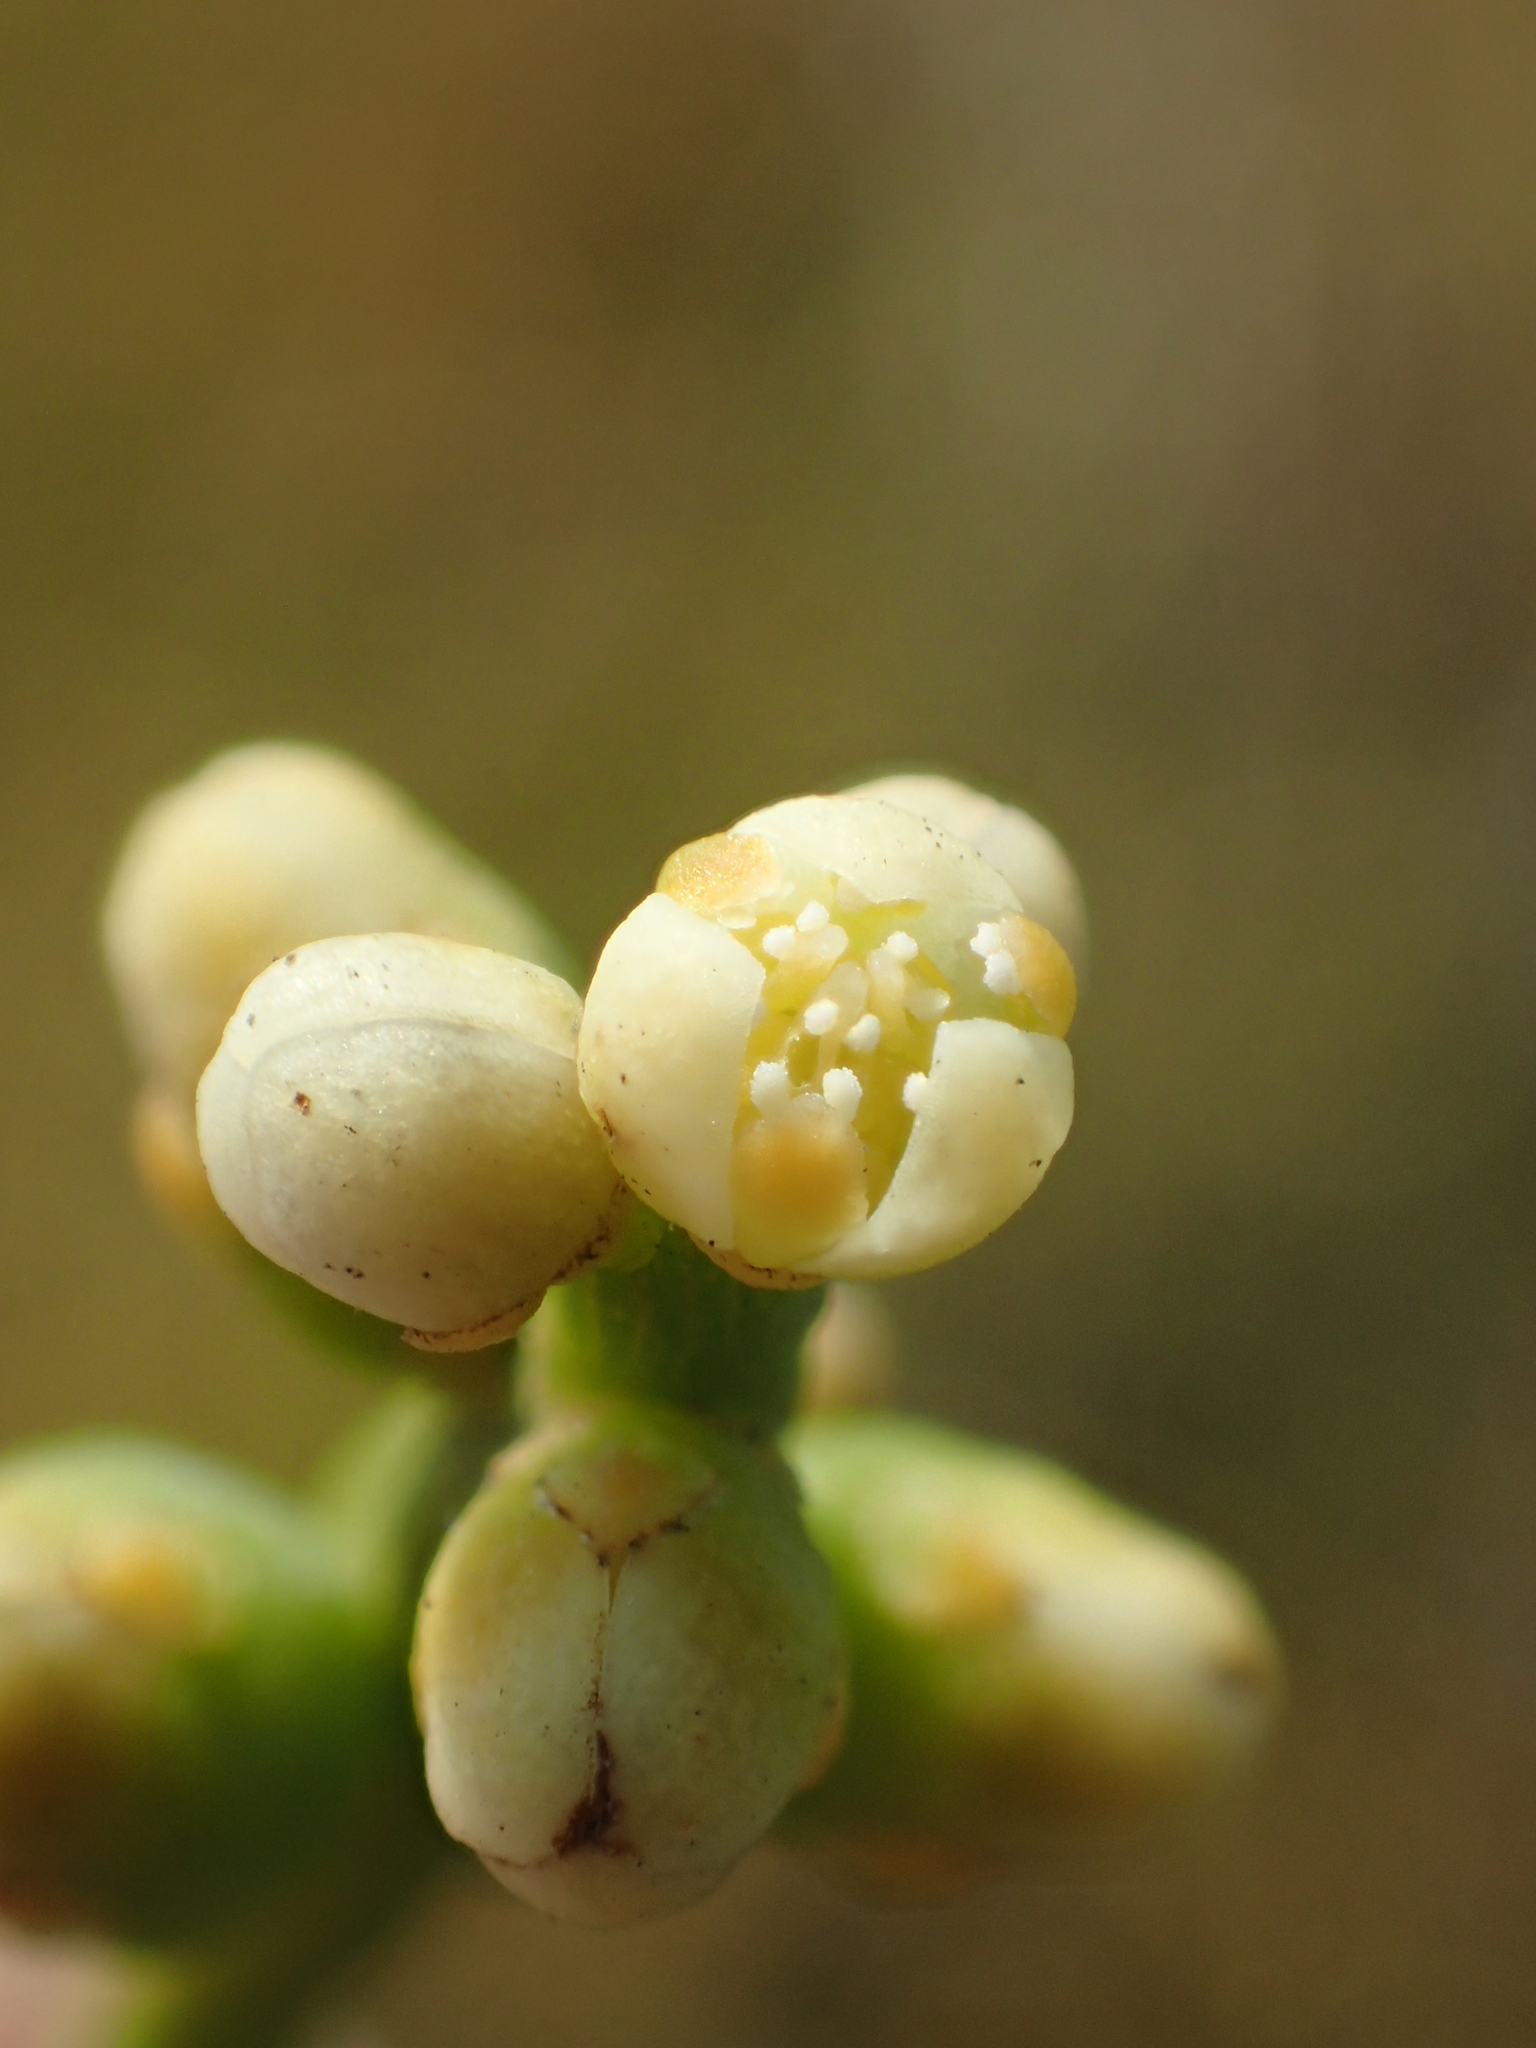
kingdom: Plantae
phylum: Tracheophyta
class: Magnoliopsida
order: Laurales
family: Lauraceae
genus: Cassytha
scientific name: Cassytha filiformis
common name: Dodder-laurel
